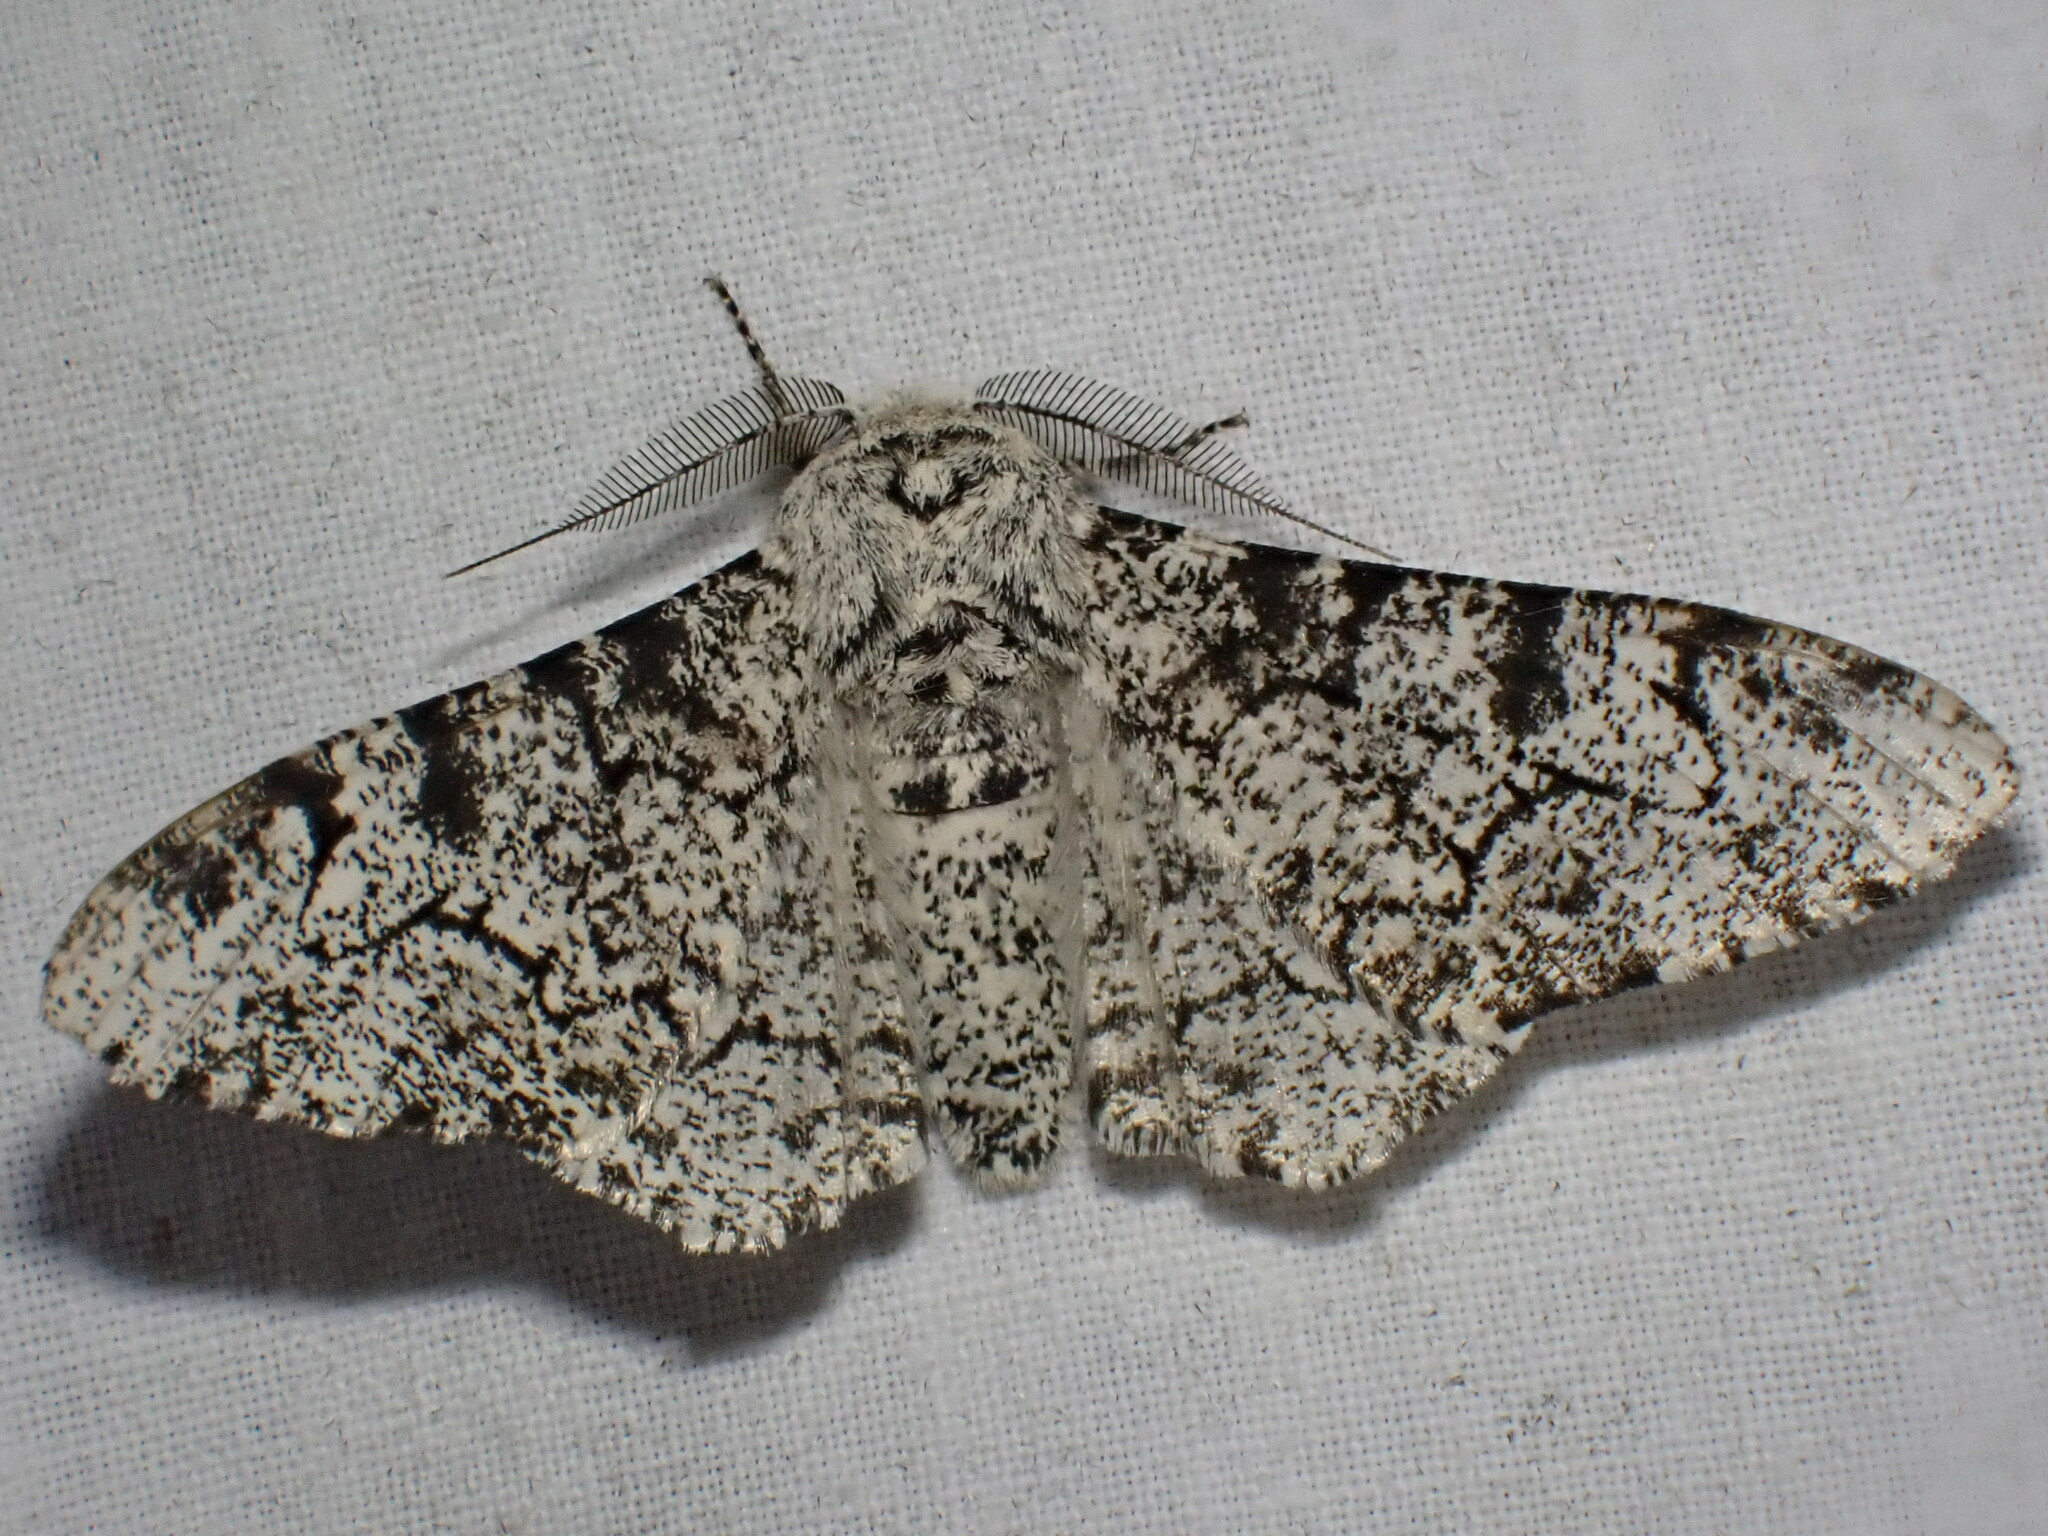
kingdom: Animalia
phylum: Arthropoda
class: Insecta
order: Lepidoptera
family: Geometridae
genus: Biston
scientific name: Biston betularia
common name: Peppered moth
